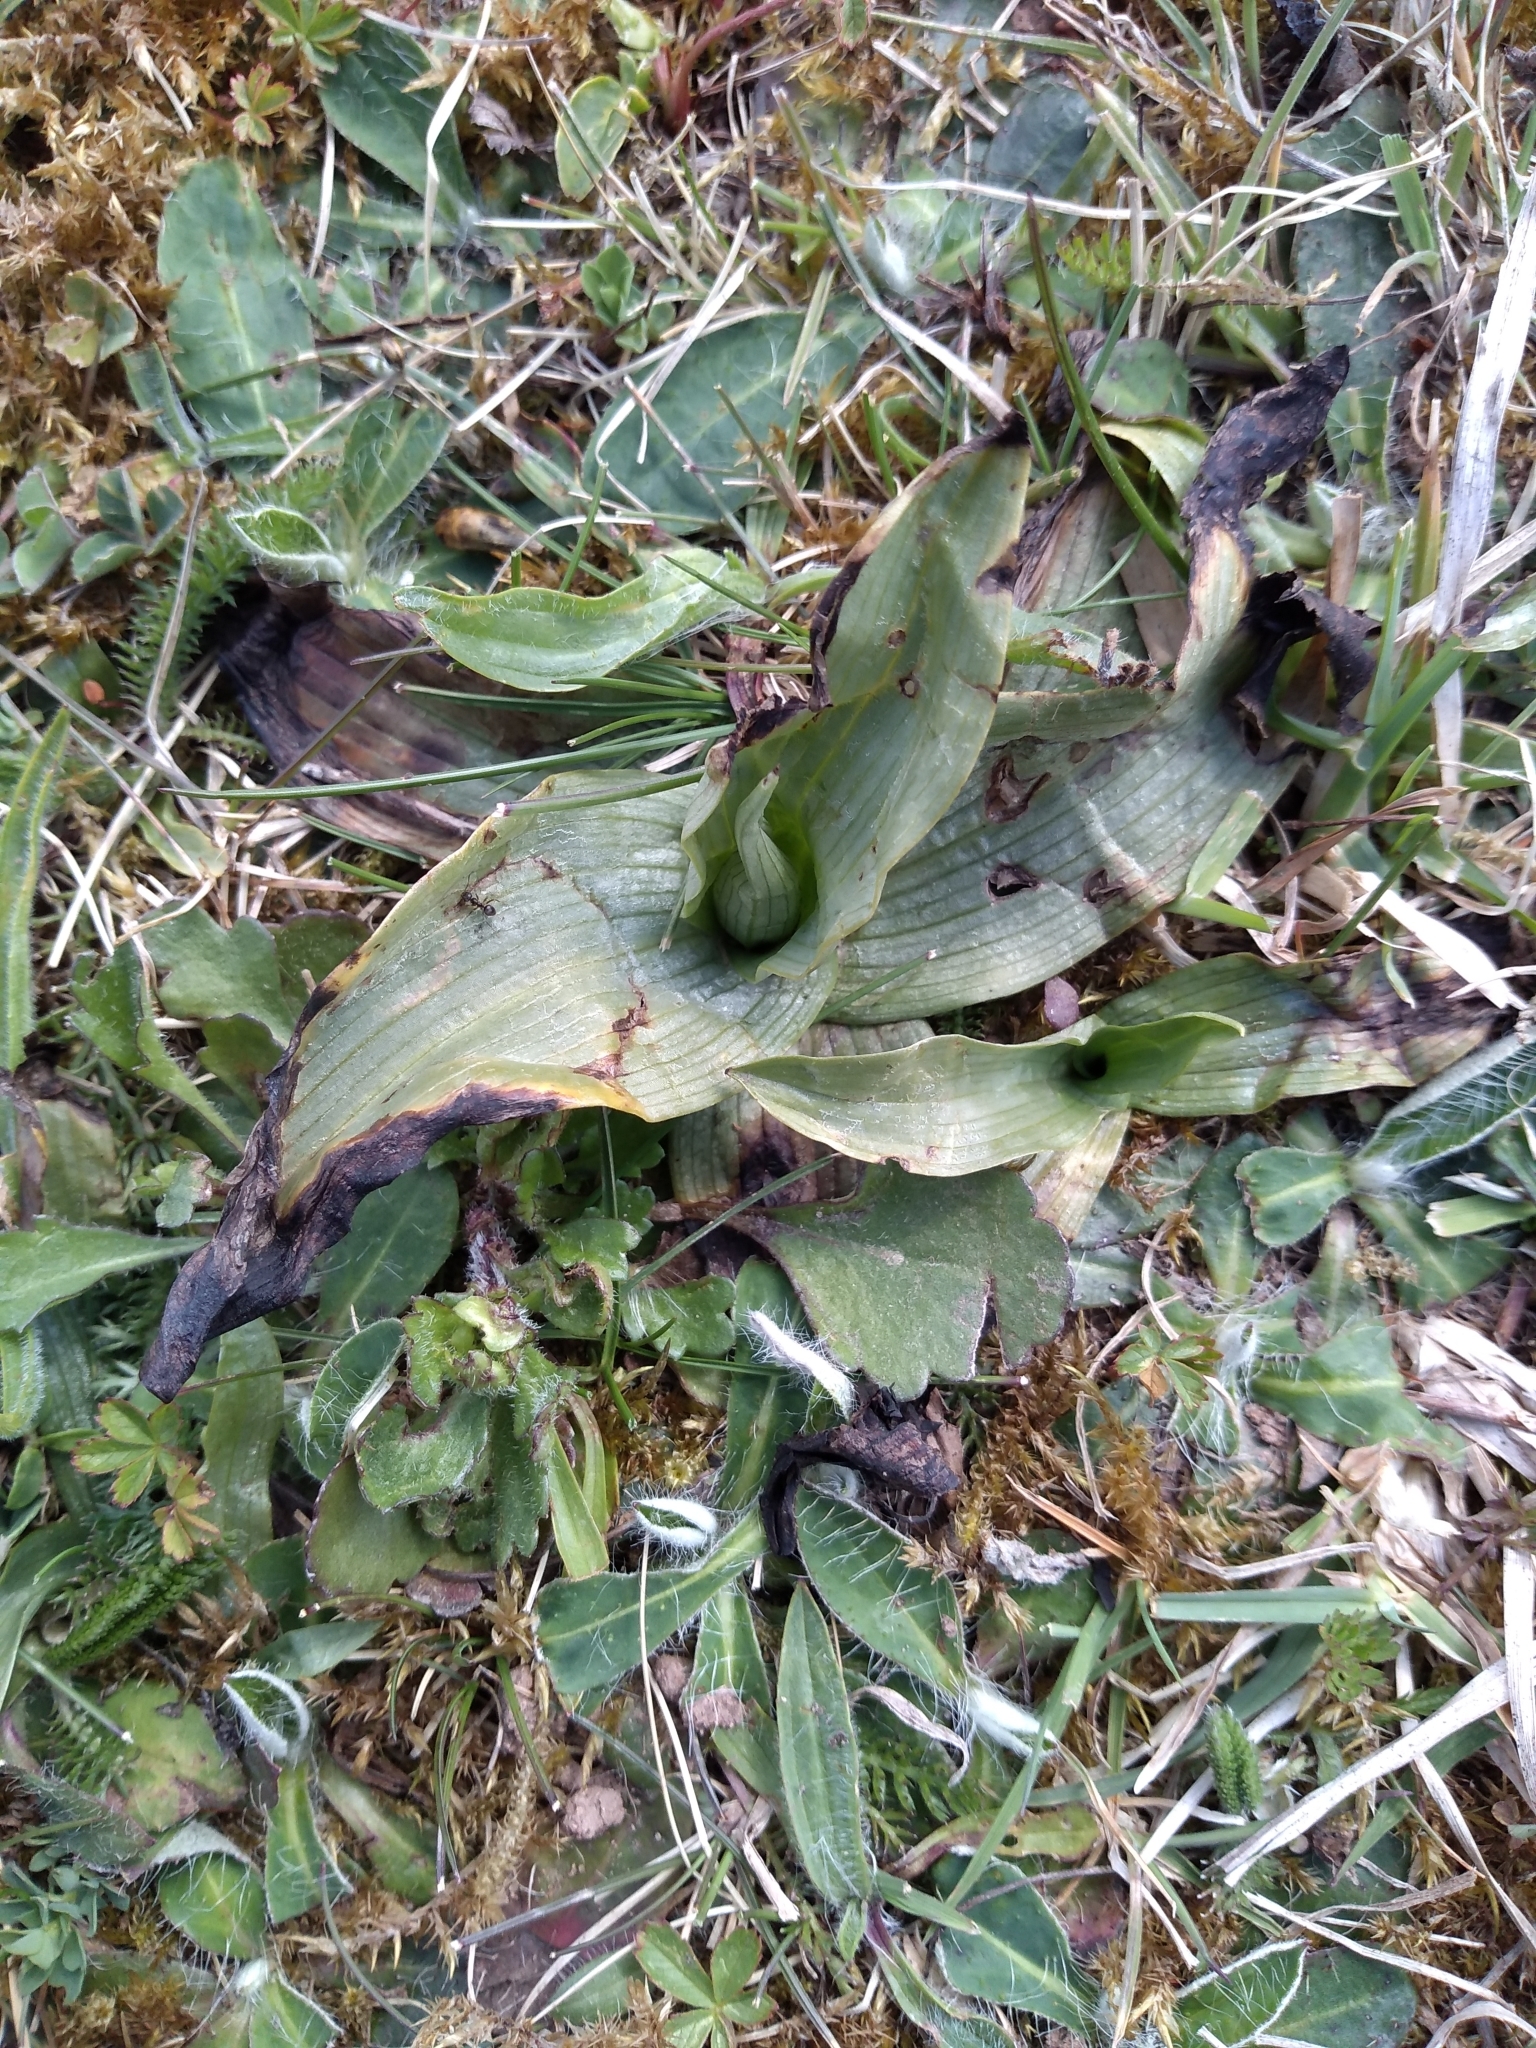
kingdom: Plantae
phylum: Tracheophyta
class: Liliopsida
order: Asparagales
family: Orchidaceae
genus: Ophrys
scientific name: Ophrys apifera
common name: Bee orchid
